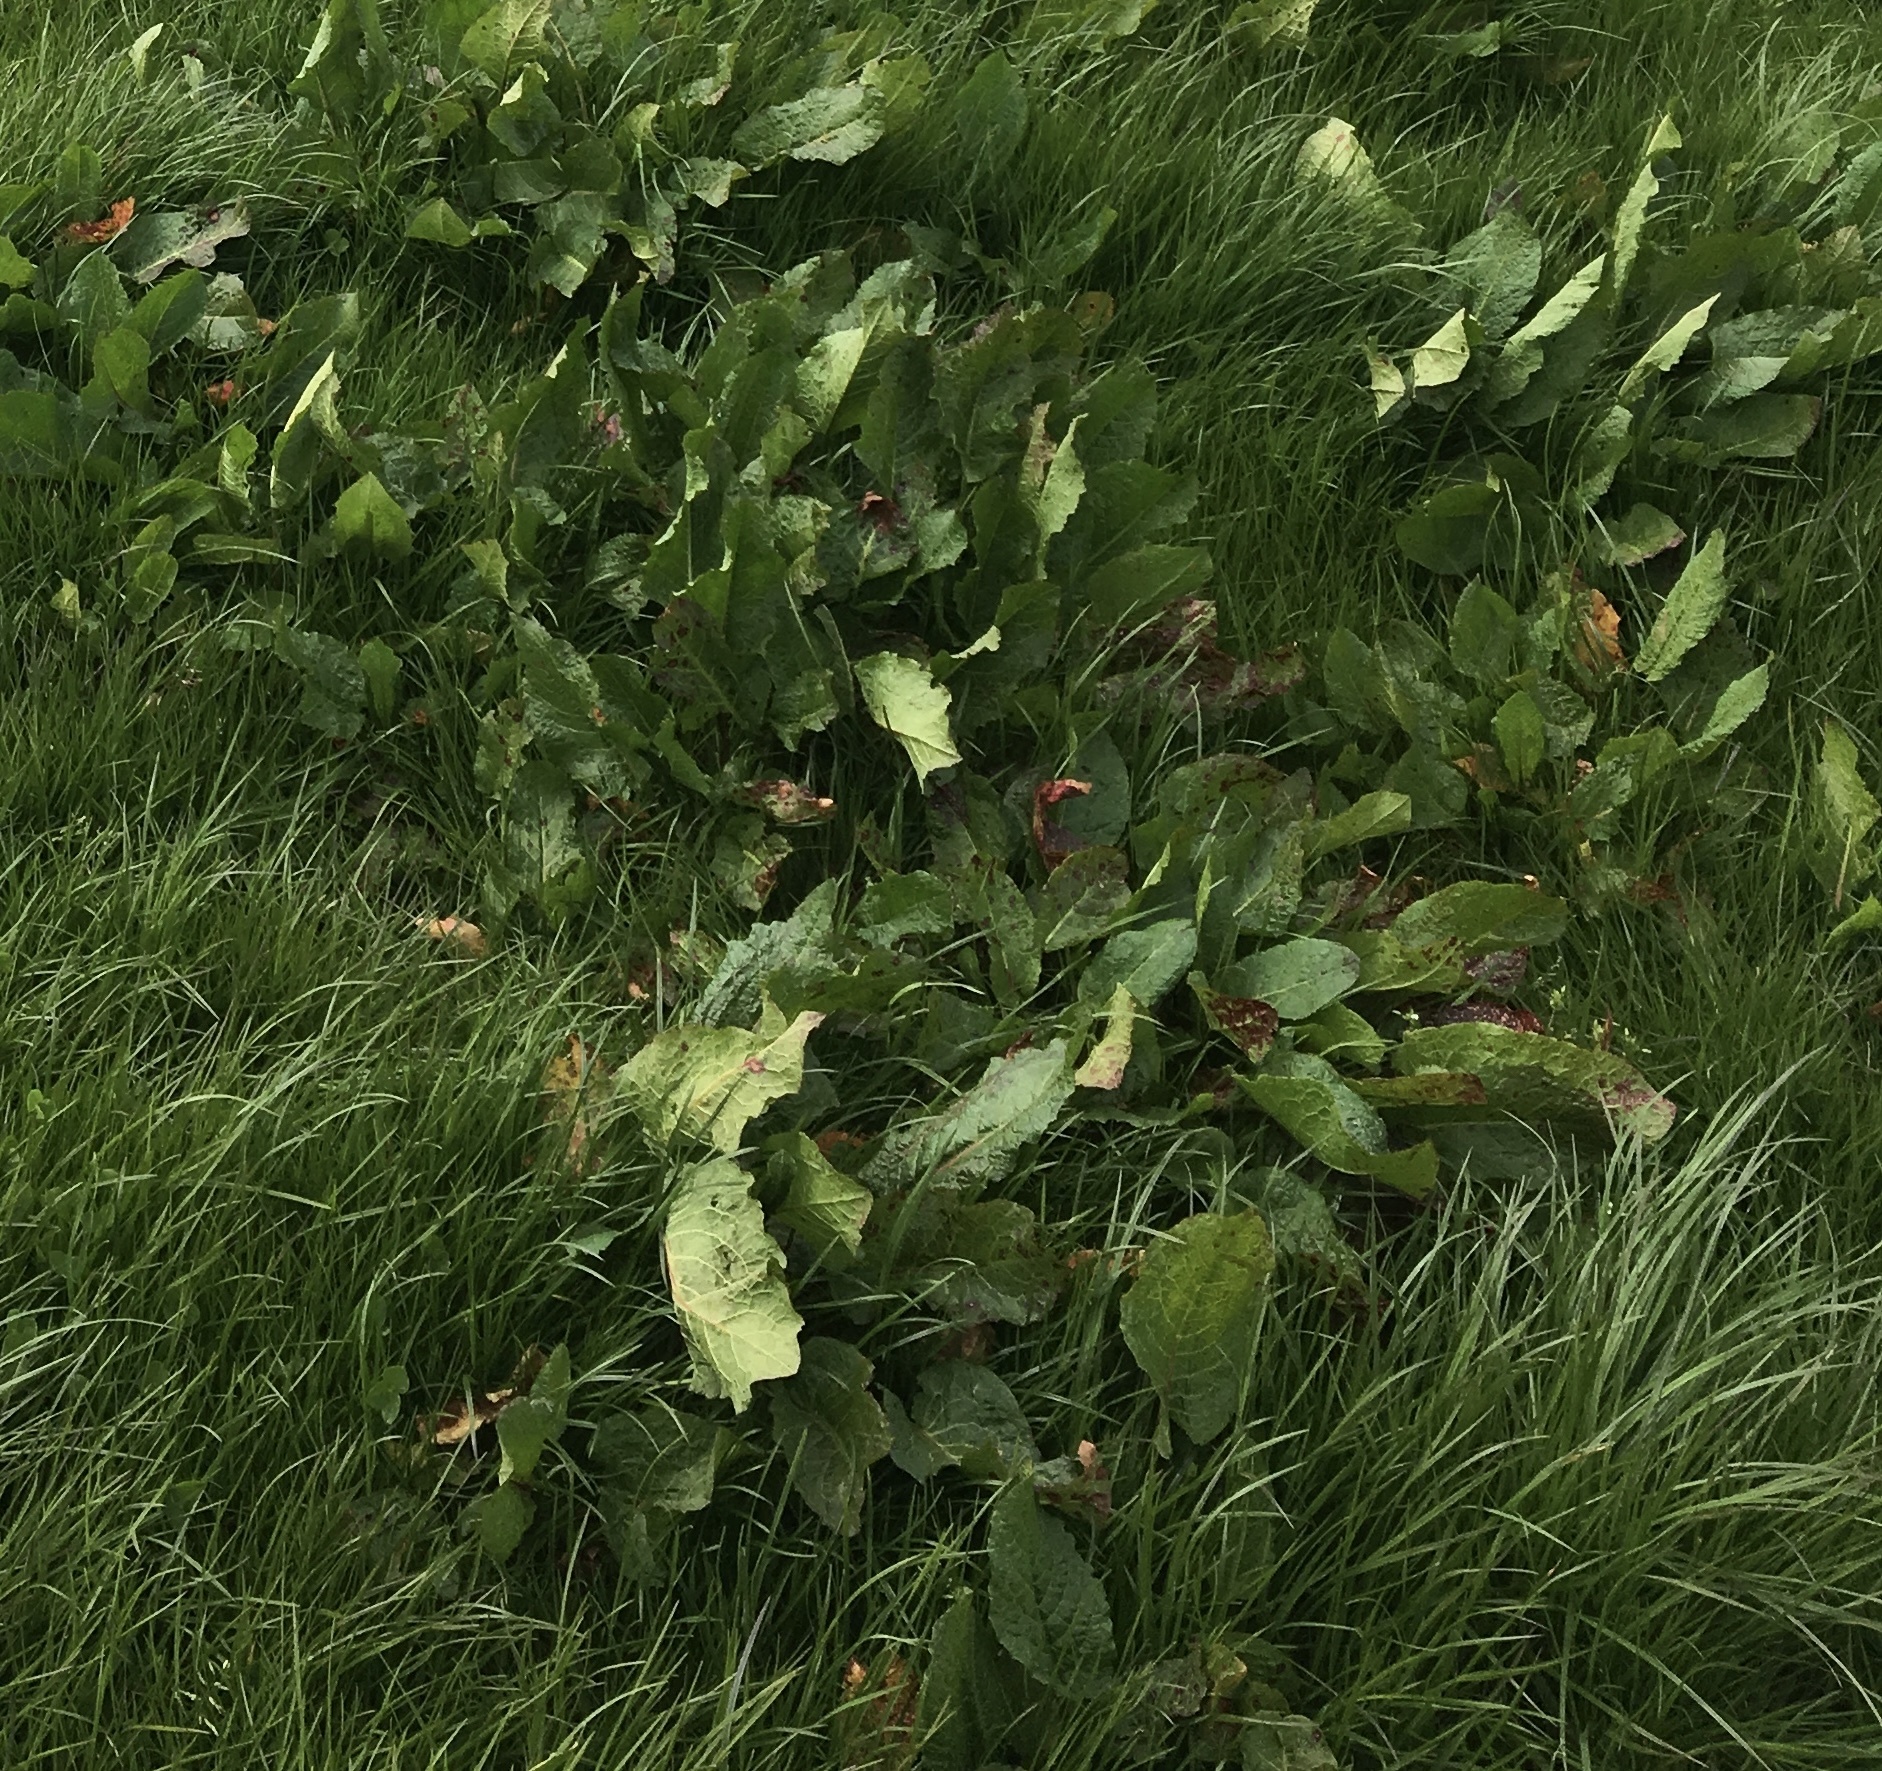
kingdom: Plantae
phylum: Tracheophyta
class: Magnoliopsida
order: Caryophyllales
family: Polygonaceae
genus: Rumex
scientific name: Rumex obtusifolius
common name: Bitter dock
